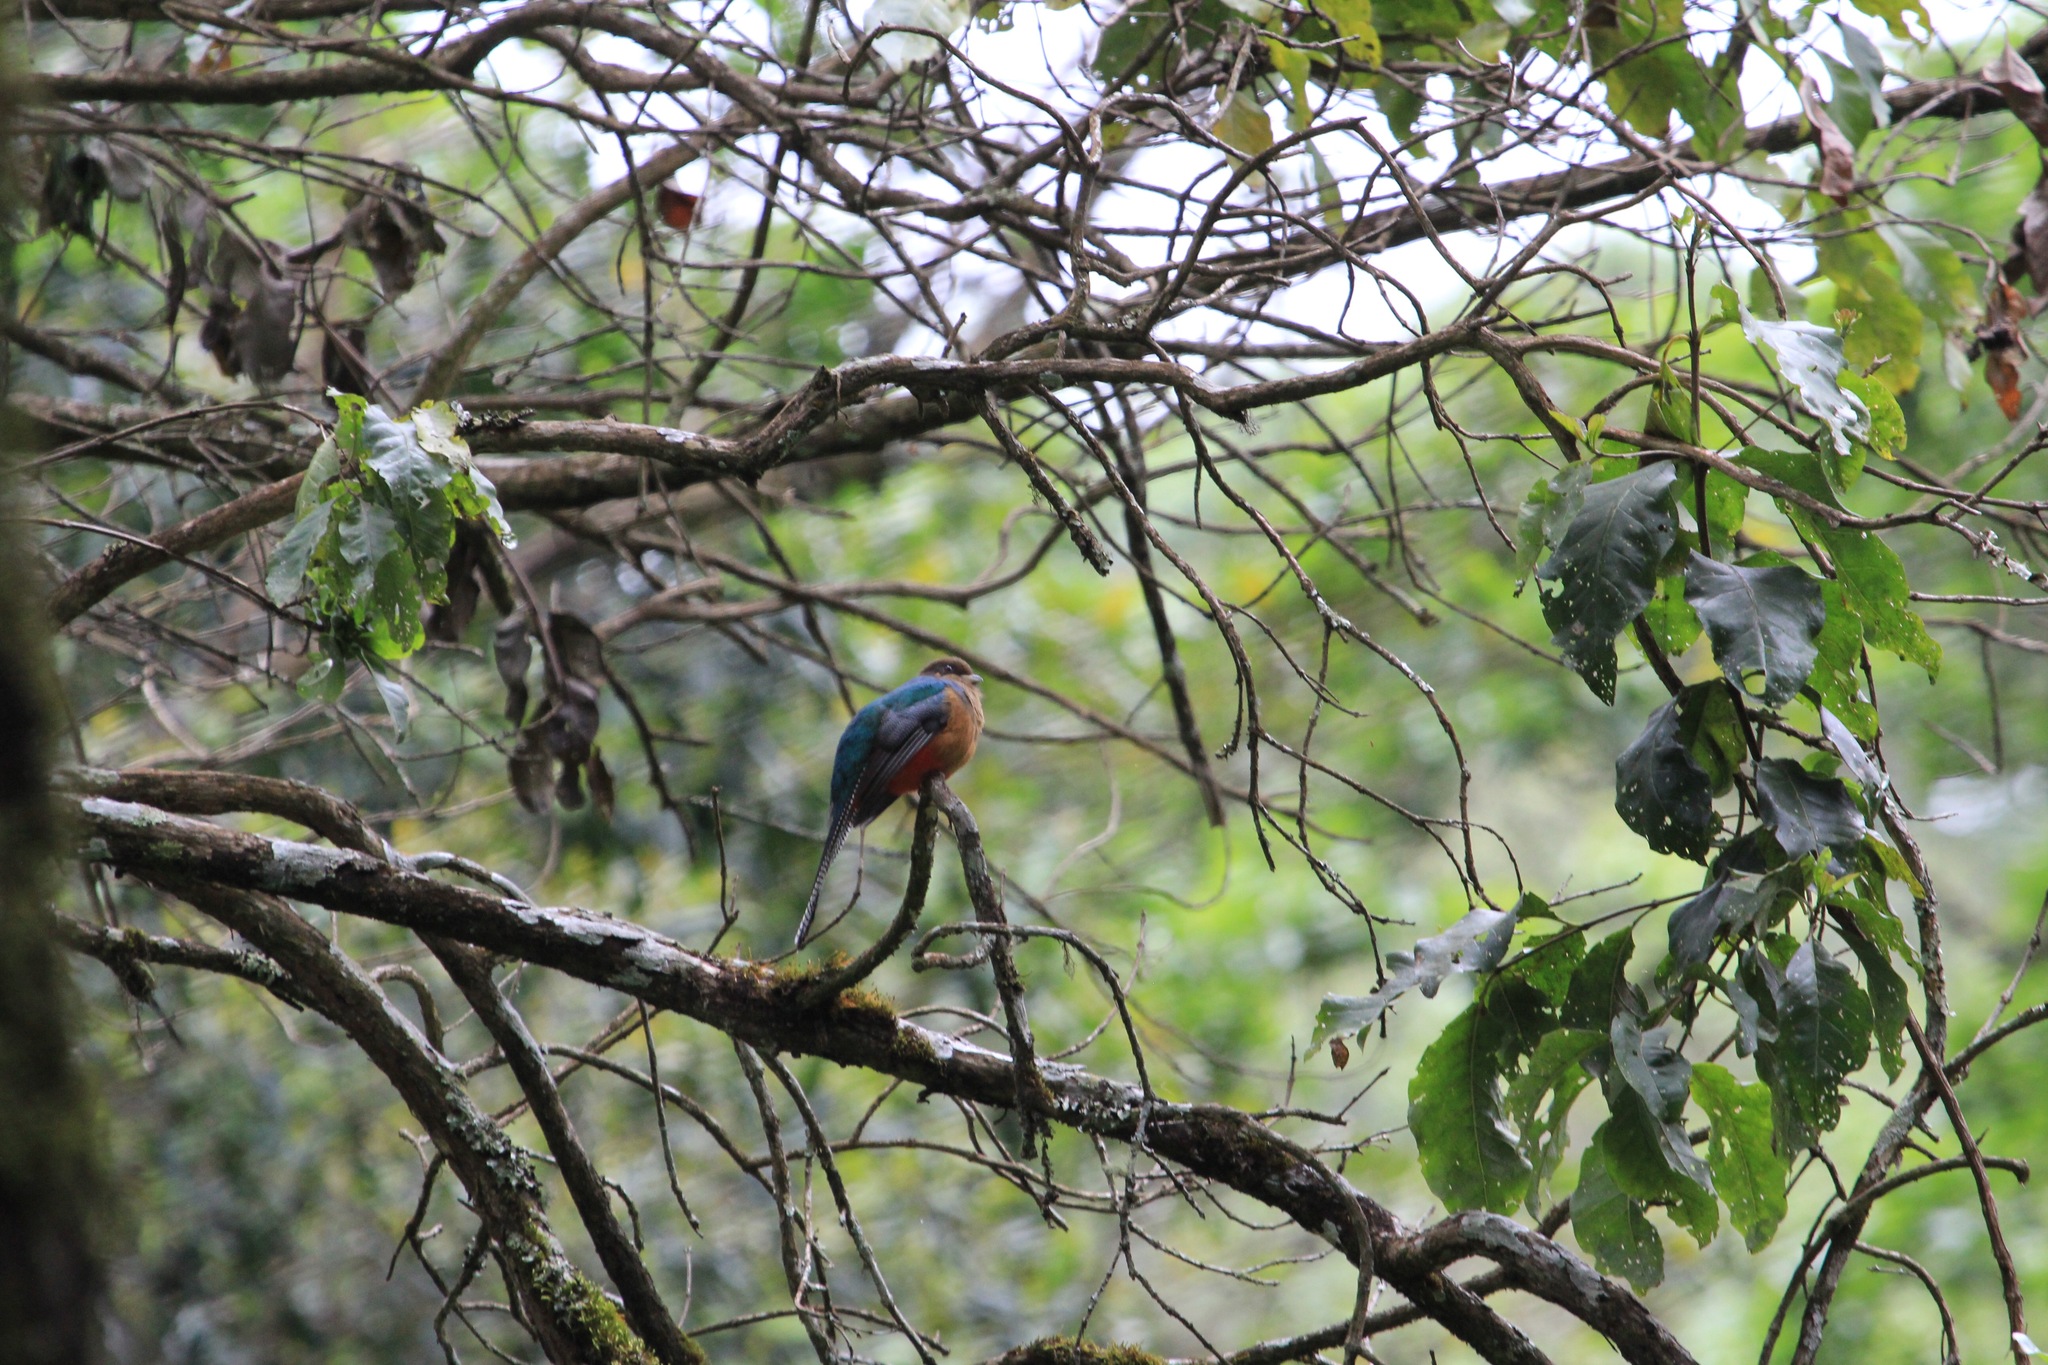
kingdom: Animalia
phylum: Chordata
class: Aves
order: Trogoniformes
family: Trogonidae
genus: Apaloderma
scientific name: Apaloderma vittatum
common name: Bar-tailed trogon
